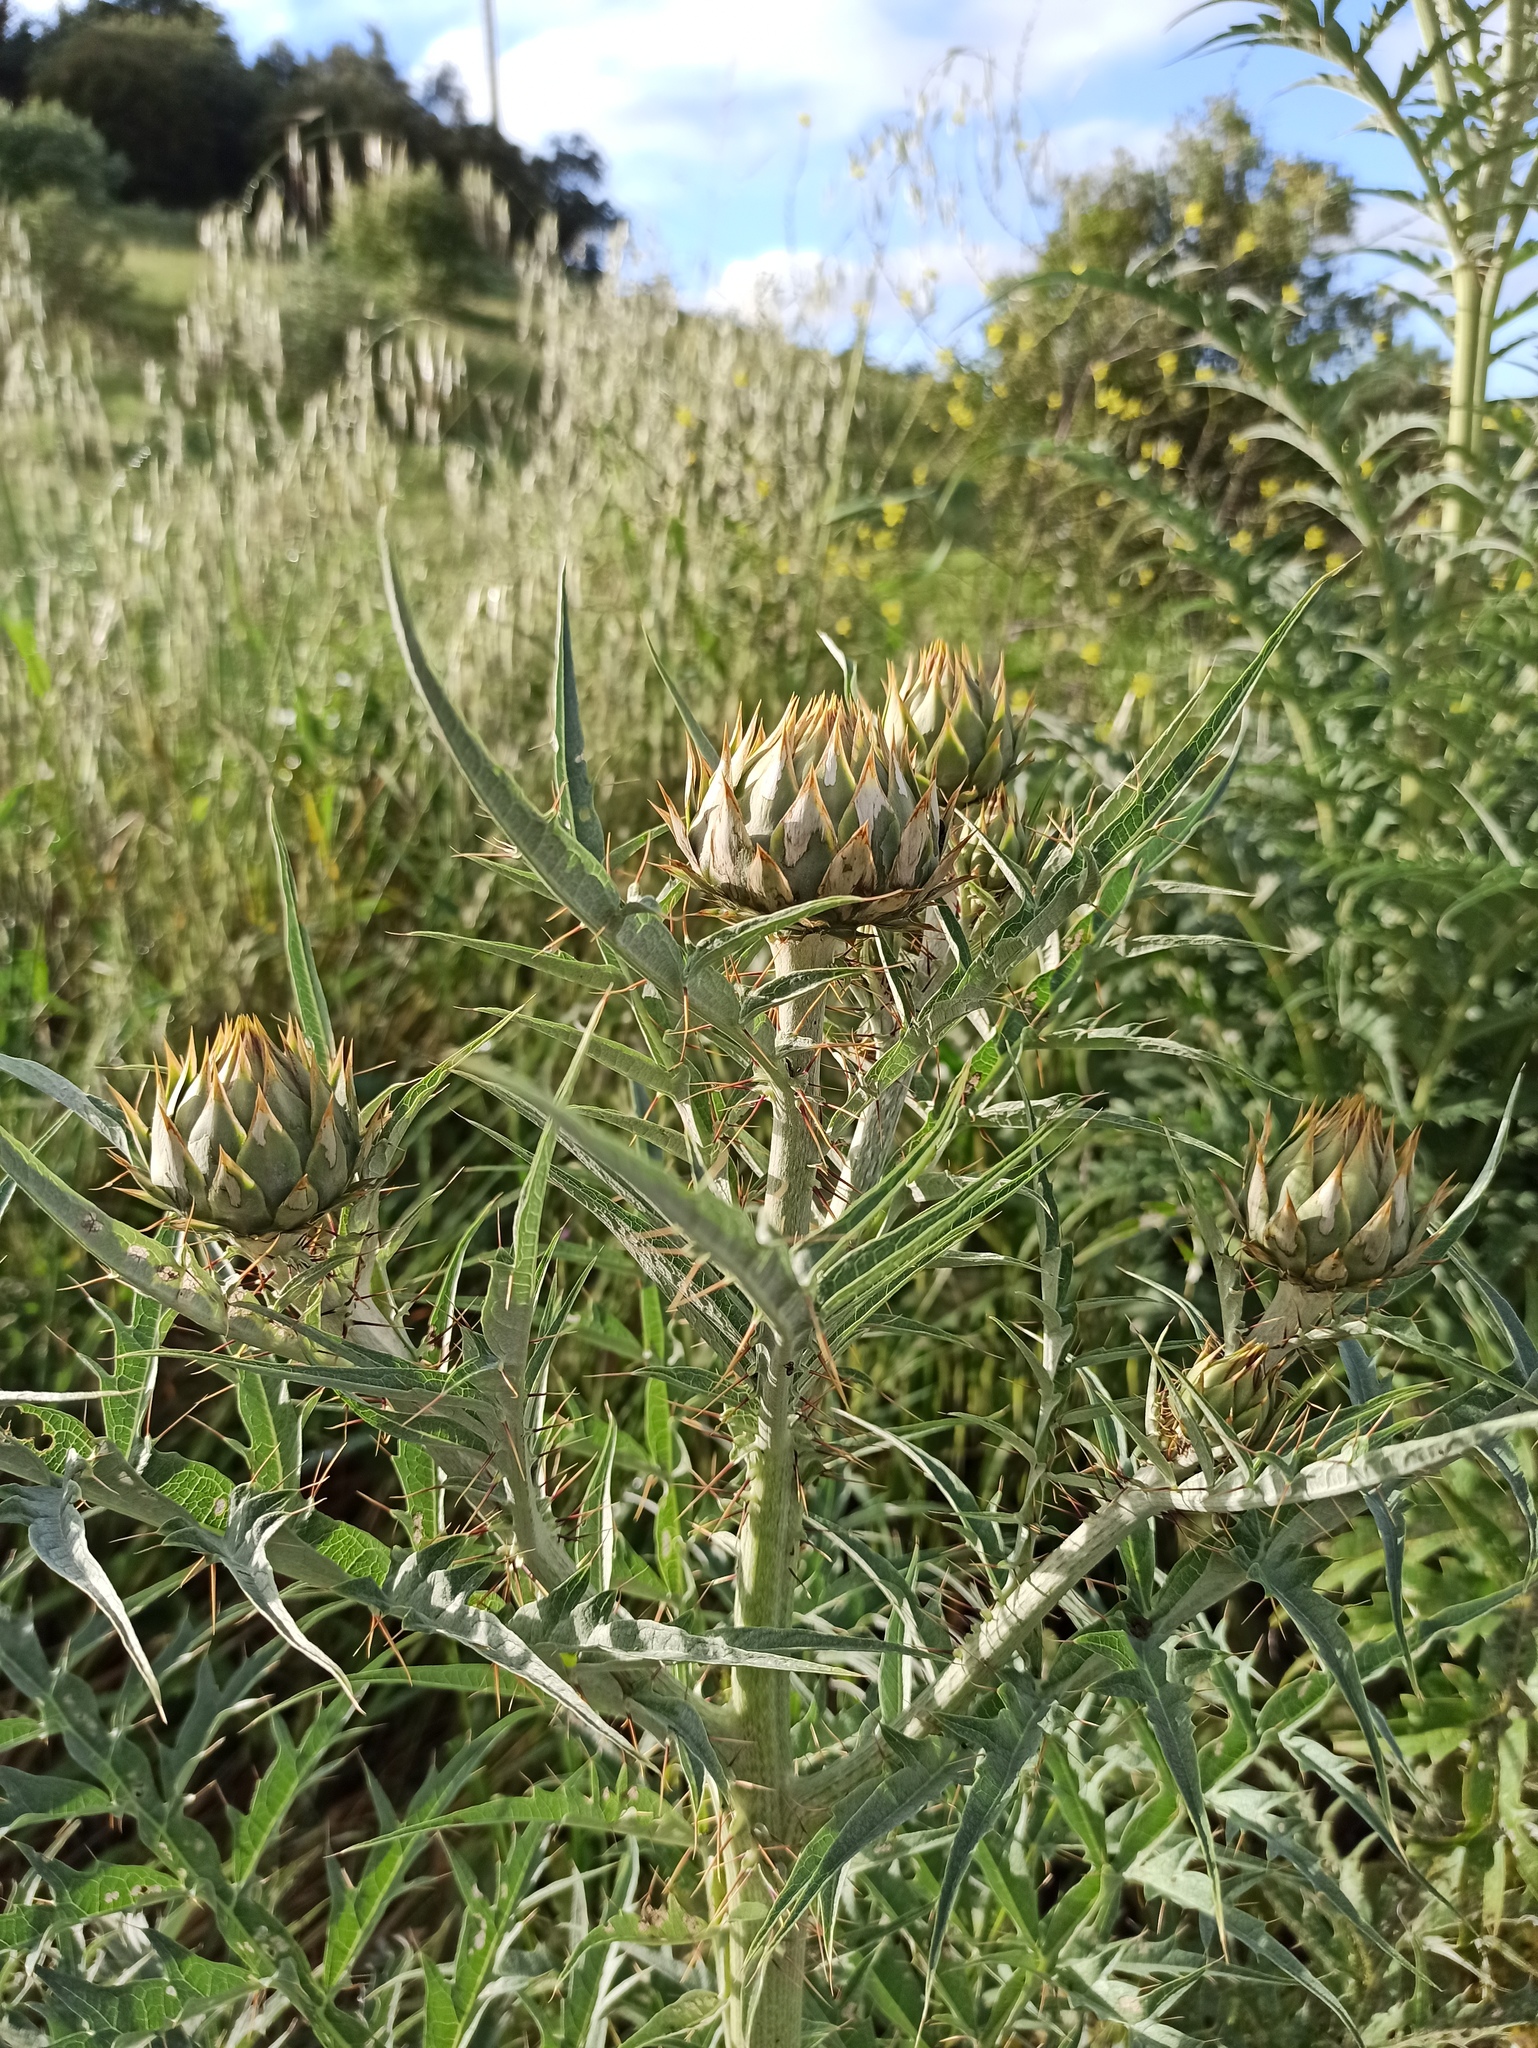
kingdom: Plantae
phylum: Tracheophyta
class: Magnoliopsida
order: Asterales
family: Asteraceae
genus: Cynara
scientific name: Cynara cardunculus
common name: Globe artichoke
